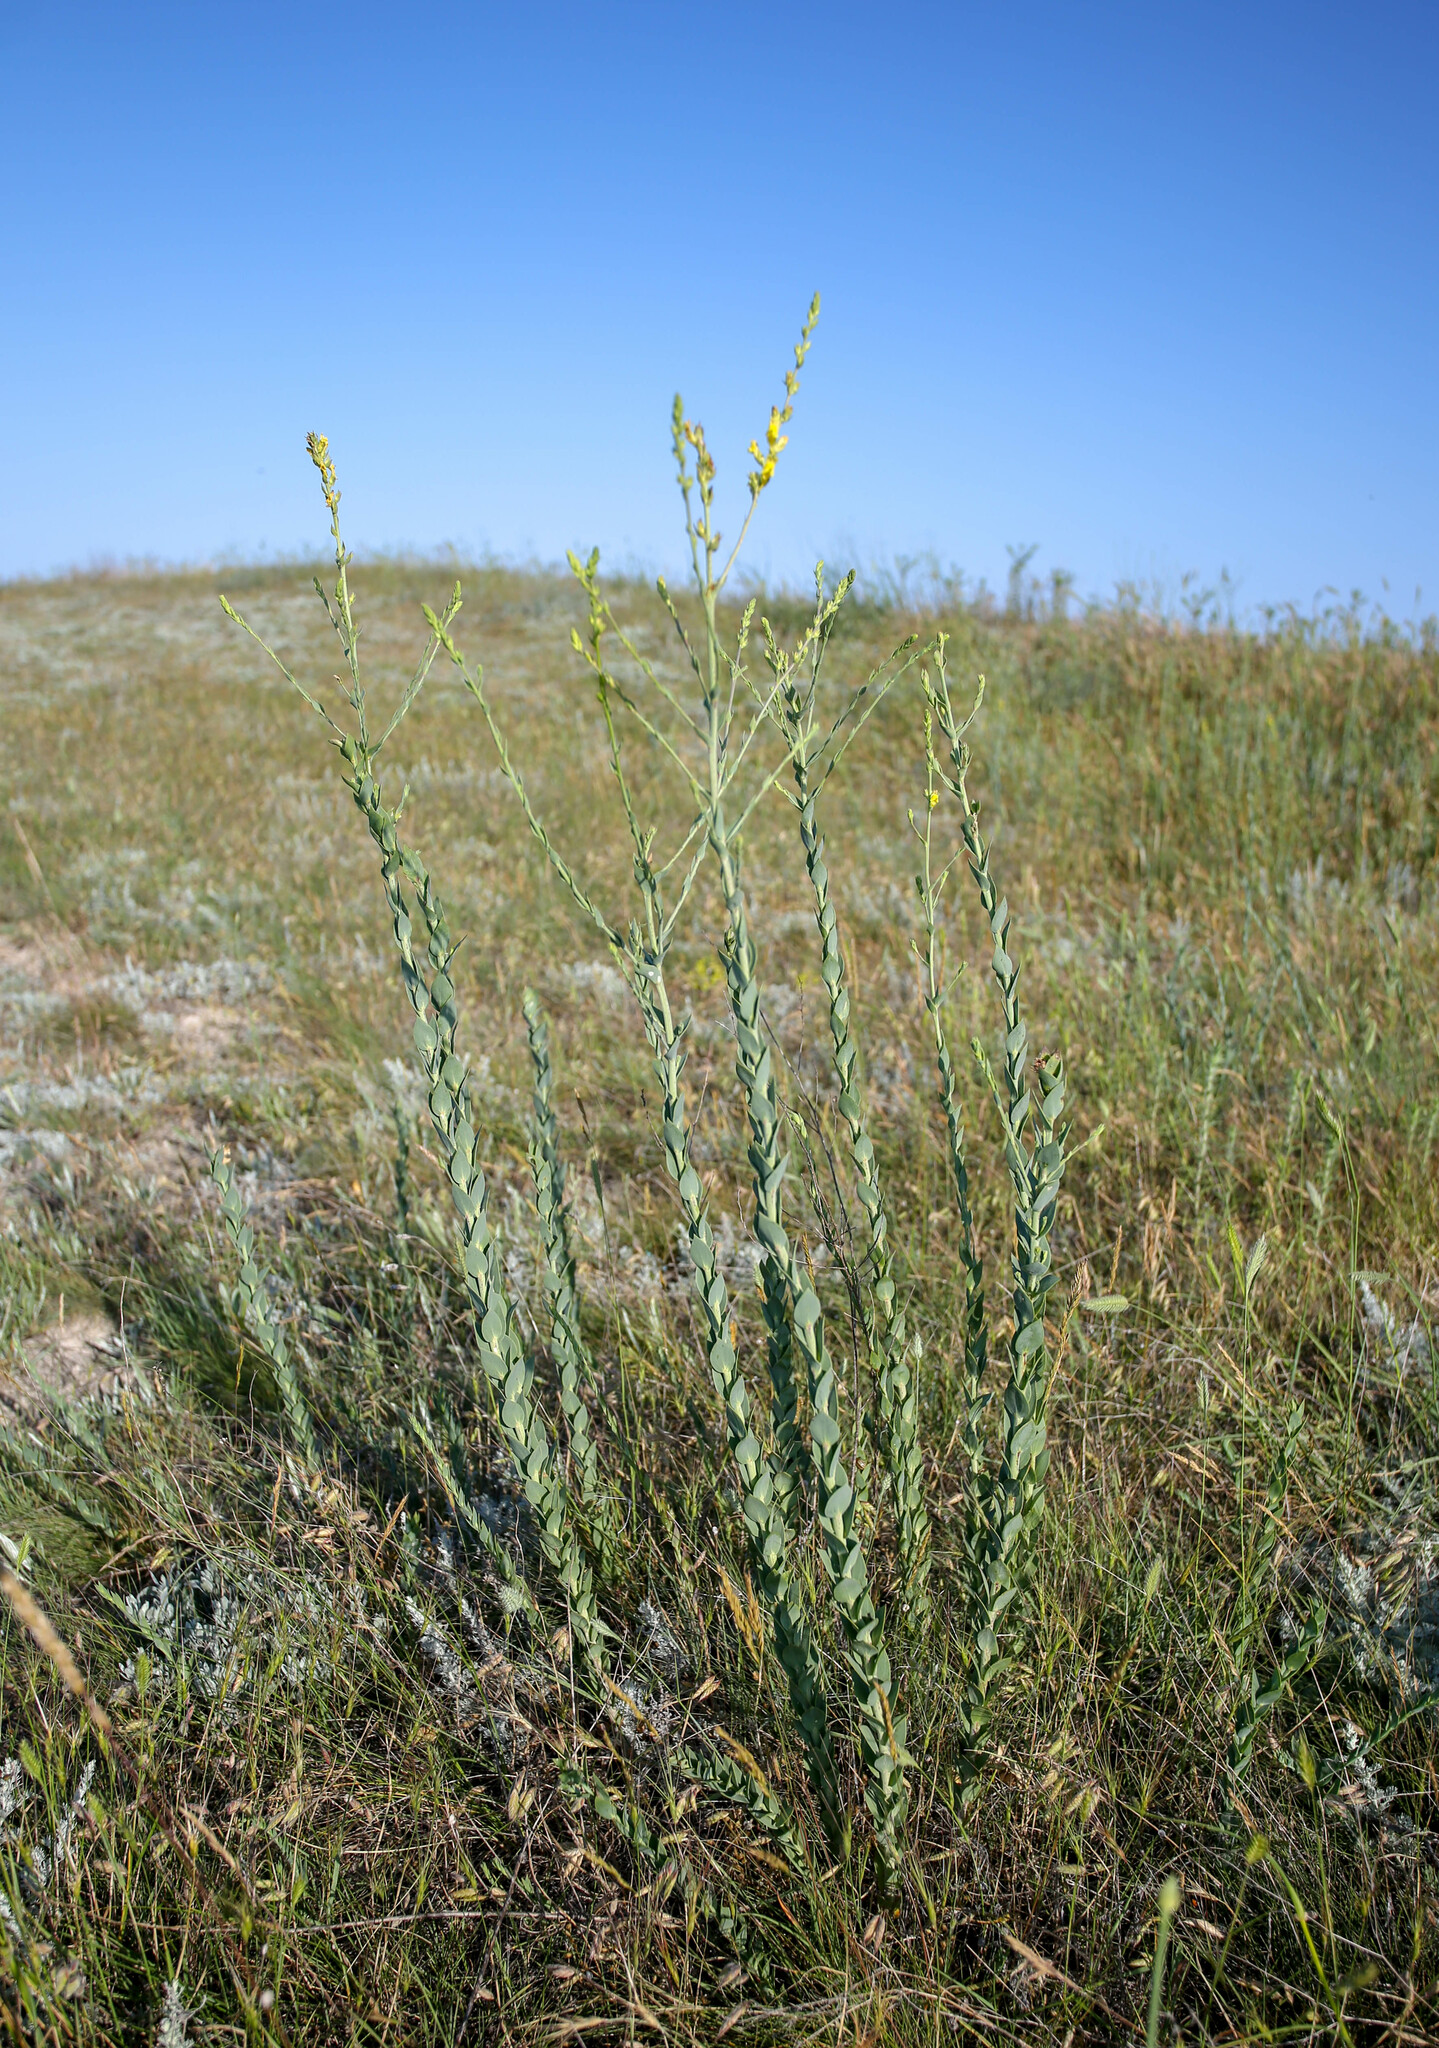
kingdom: Plantae
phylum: Tracheophyta
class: Magnoliopsida
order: Lamiales
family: Plantaginaceae
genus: Linaria
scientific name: Linaria genistifolia
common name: Broomleaf toadflax
